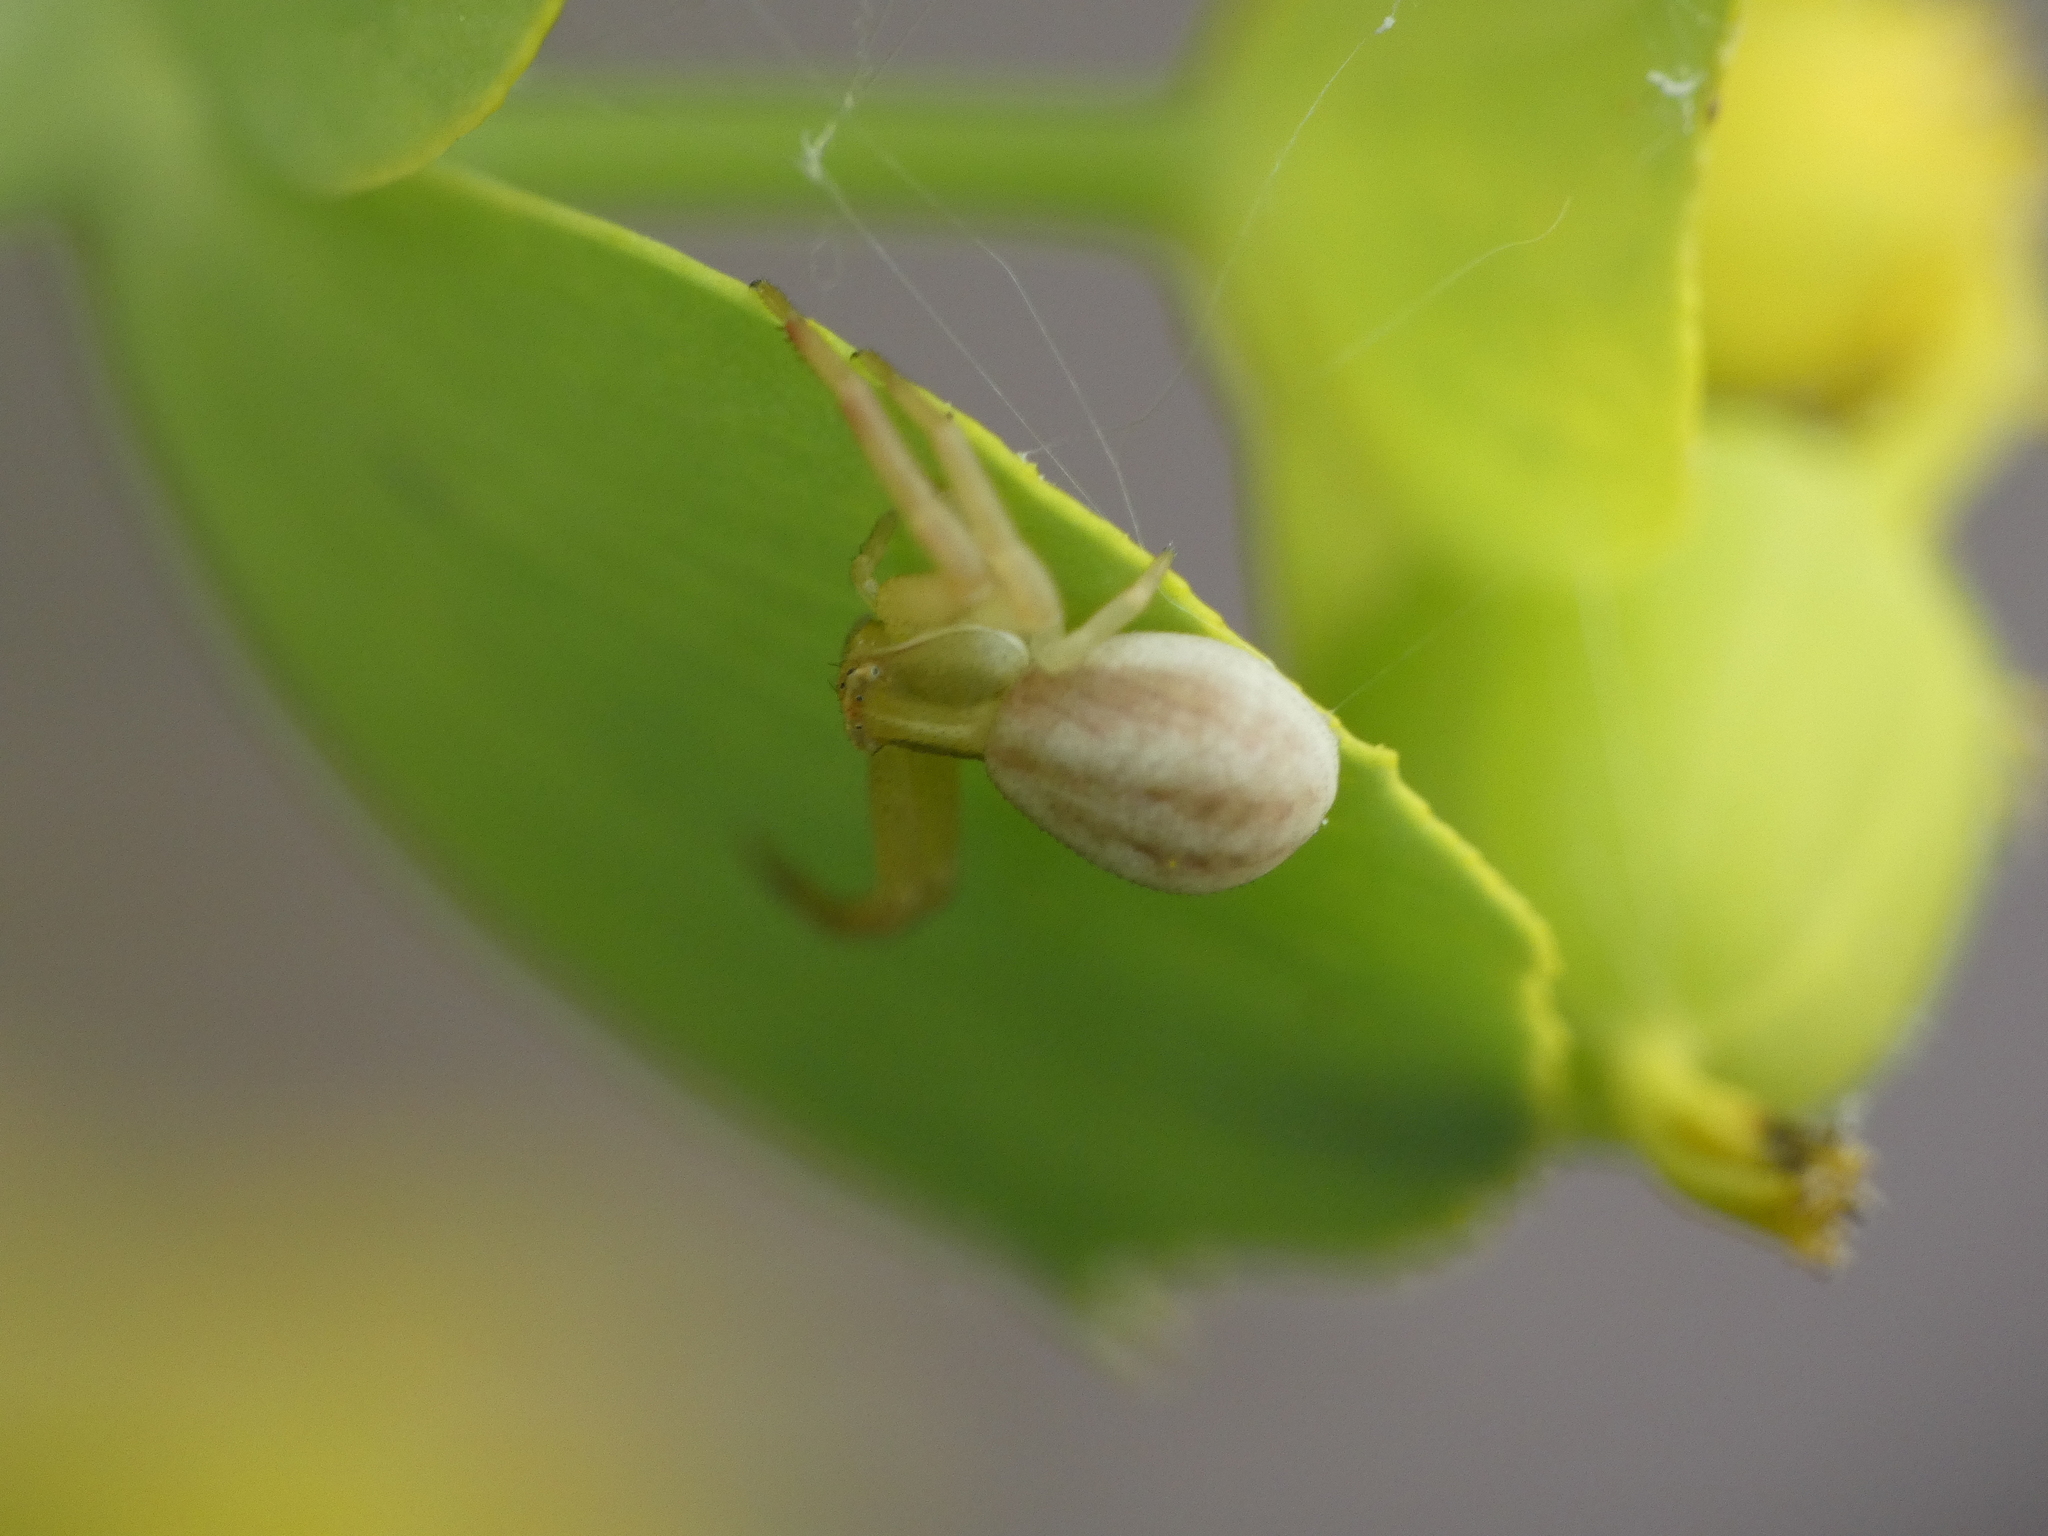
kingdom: Animalia
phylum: Arthropoda
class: Arachnida
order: Araneae
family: Thomisidae
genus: Runcinia
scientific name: Runcinia grammica
